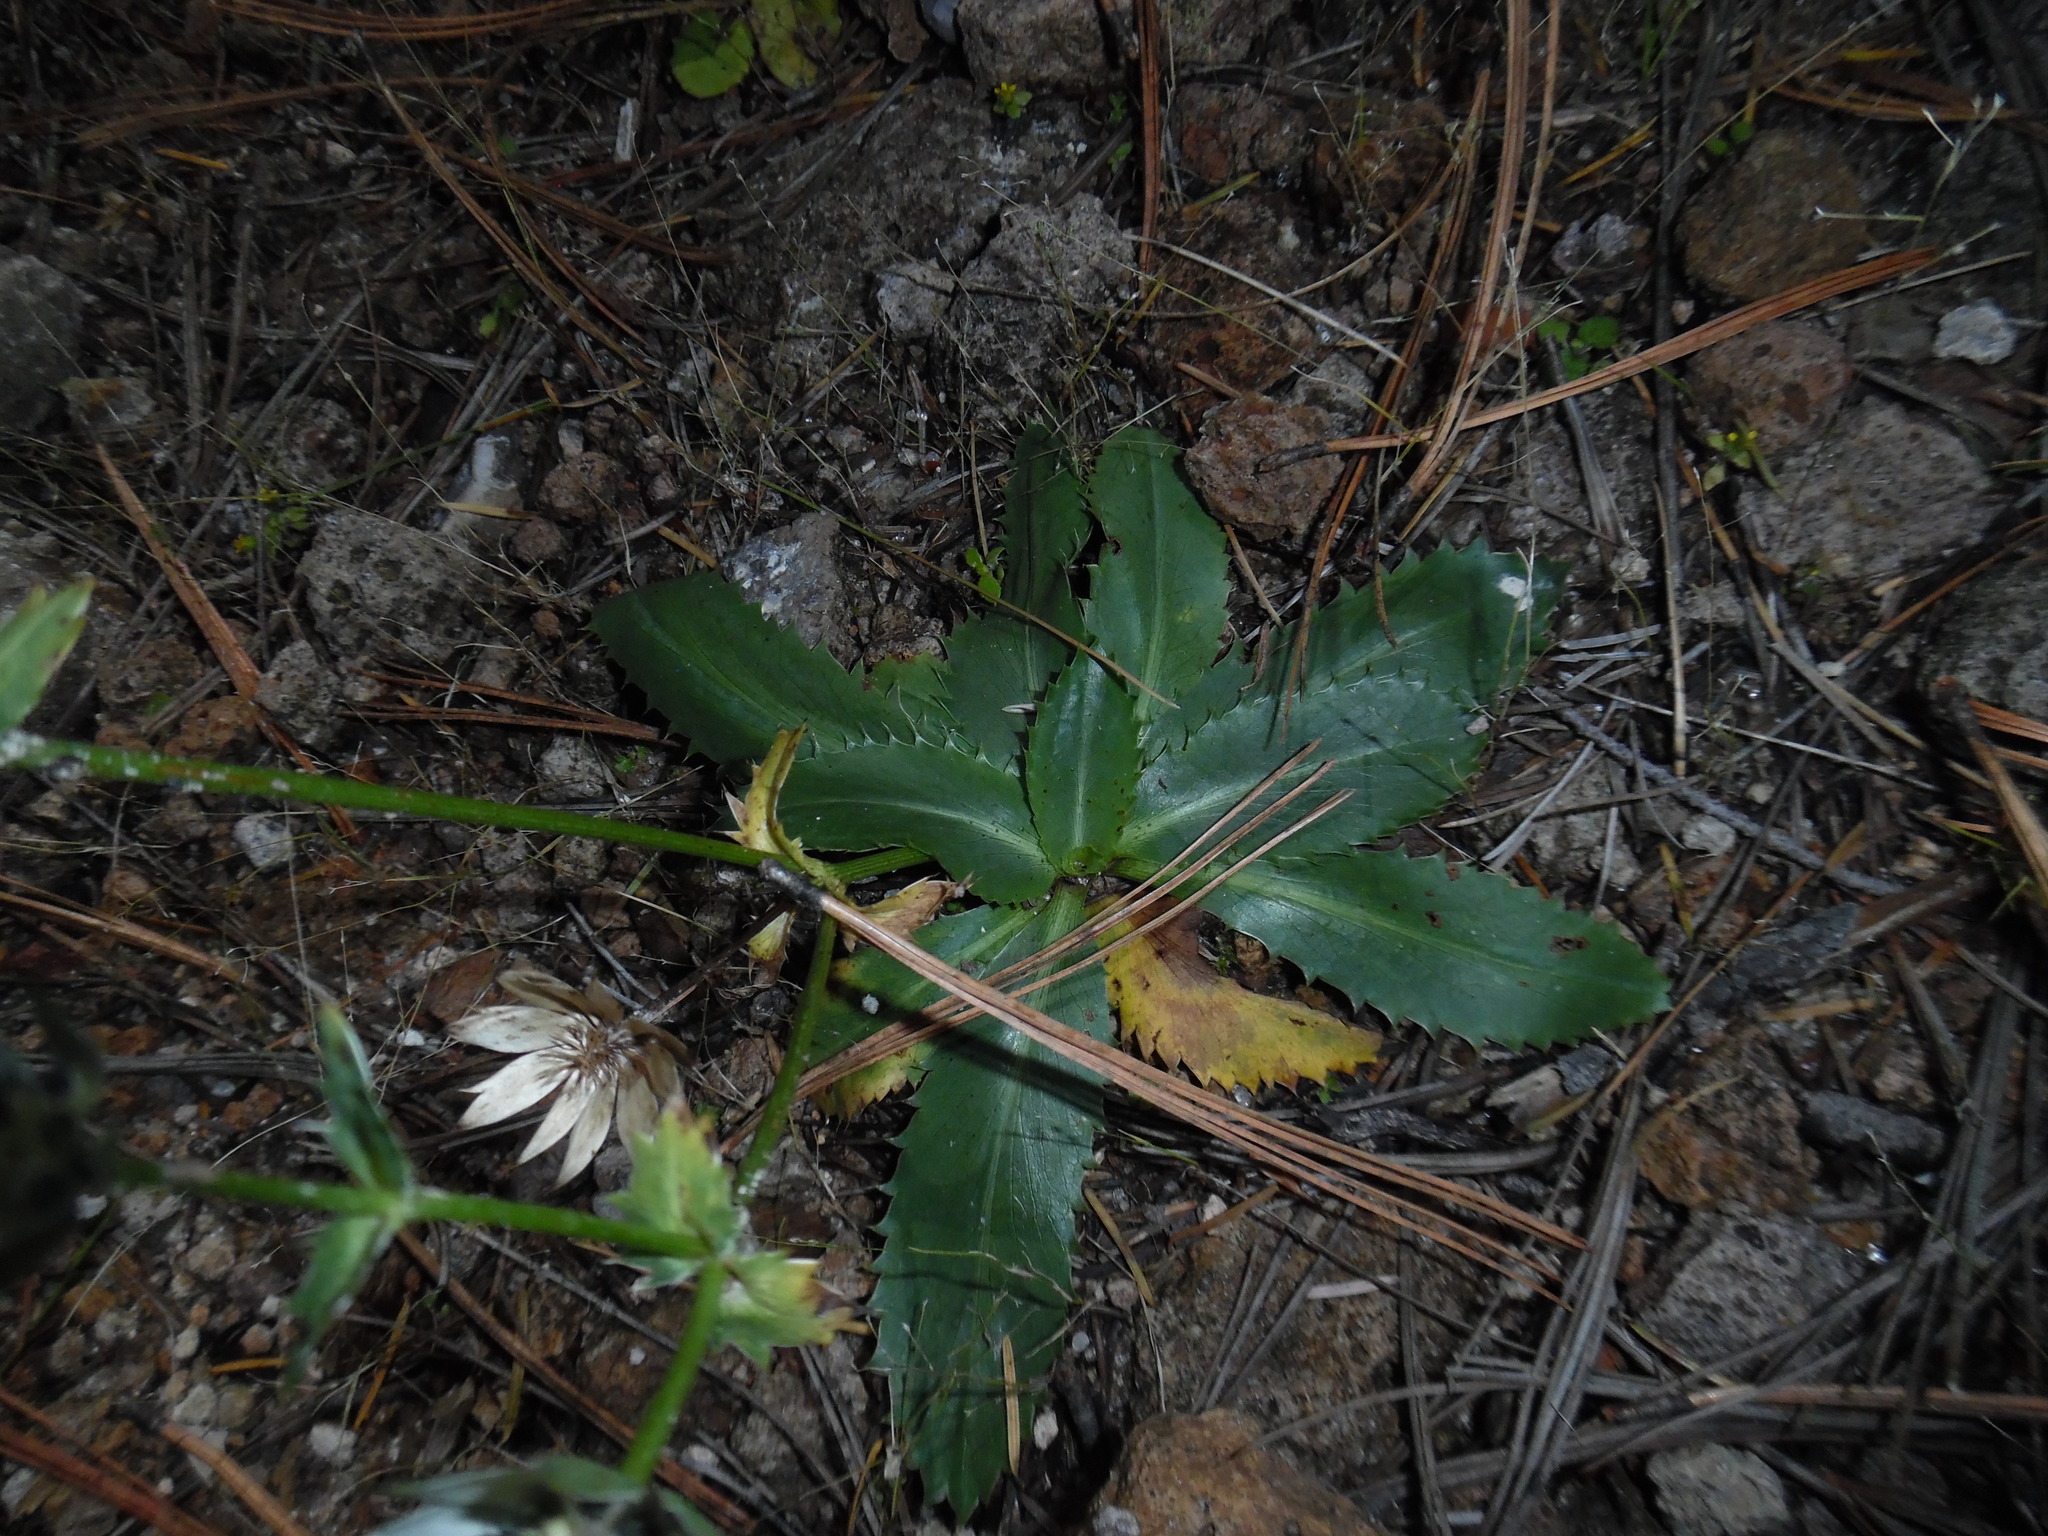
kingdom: Plantae
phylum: Tracheophyta
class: Magnoliopsida
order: Apiales
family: Apiaceae
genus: Eryngium
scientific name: Eryngium carlinae
